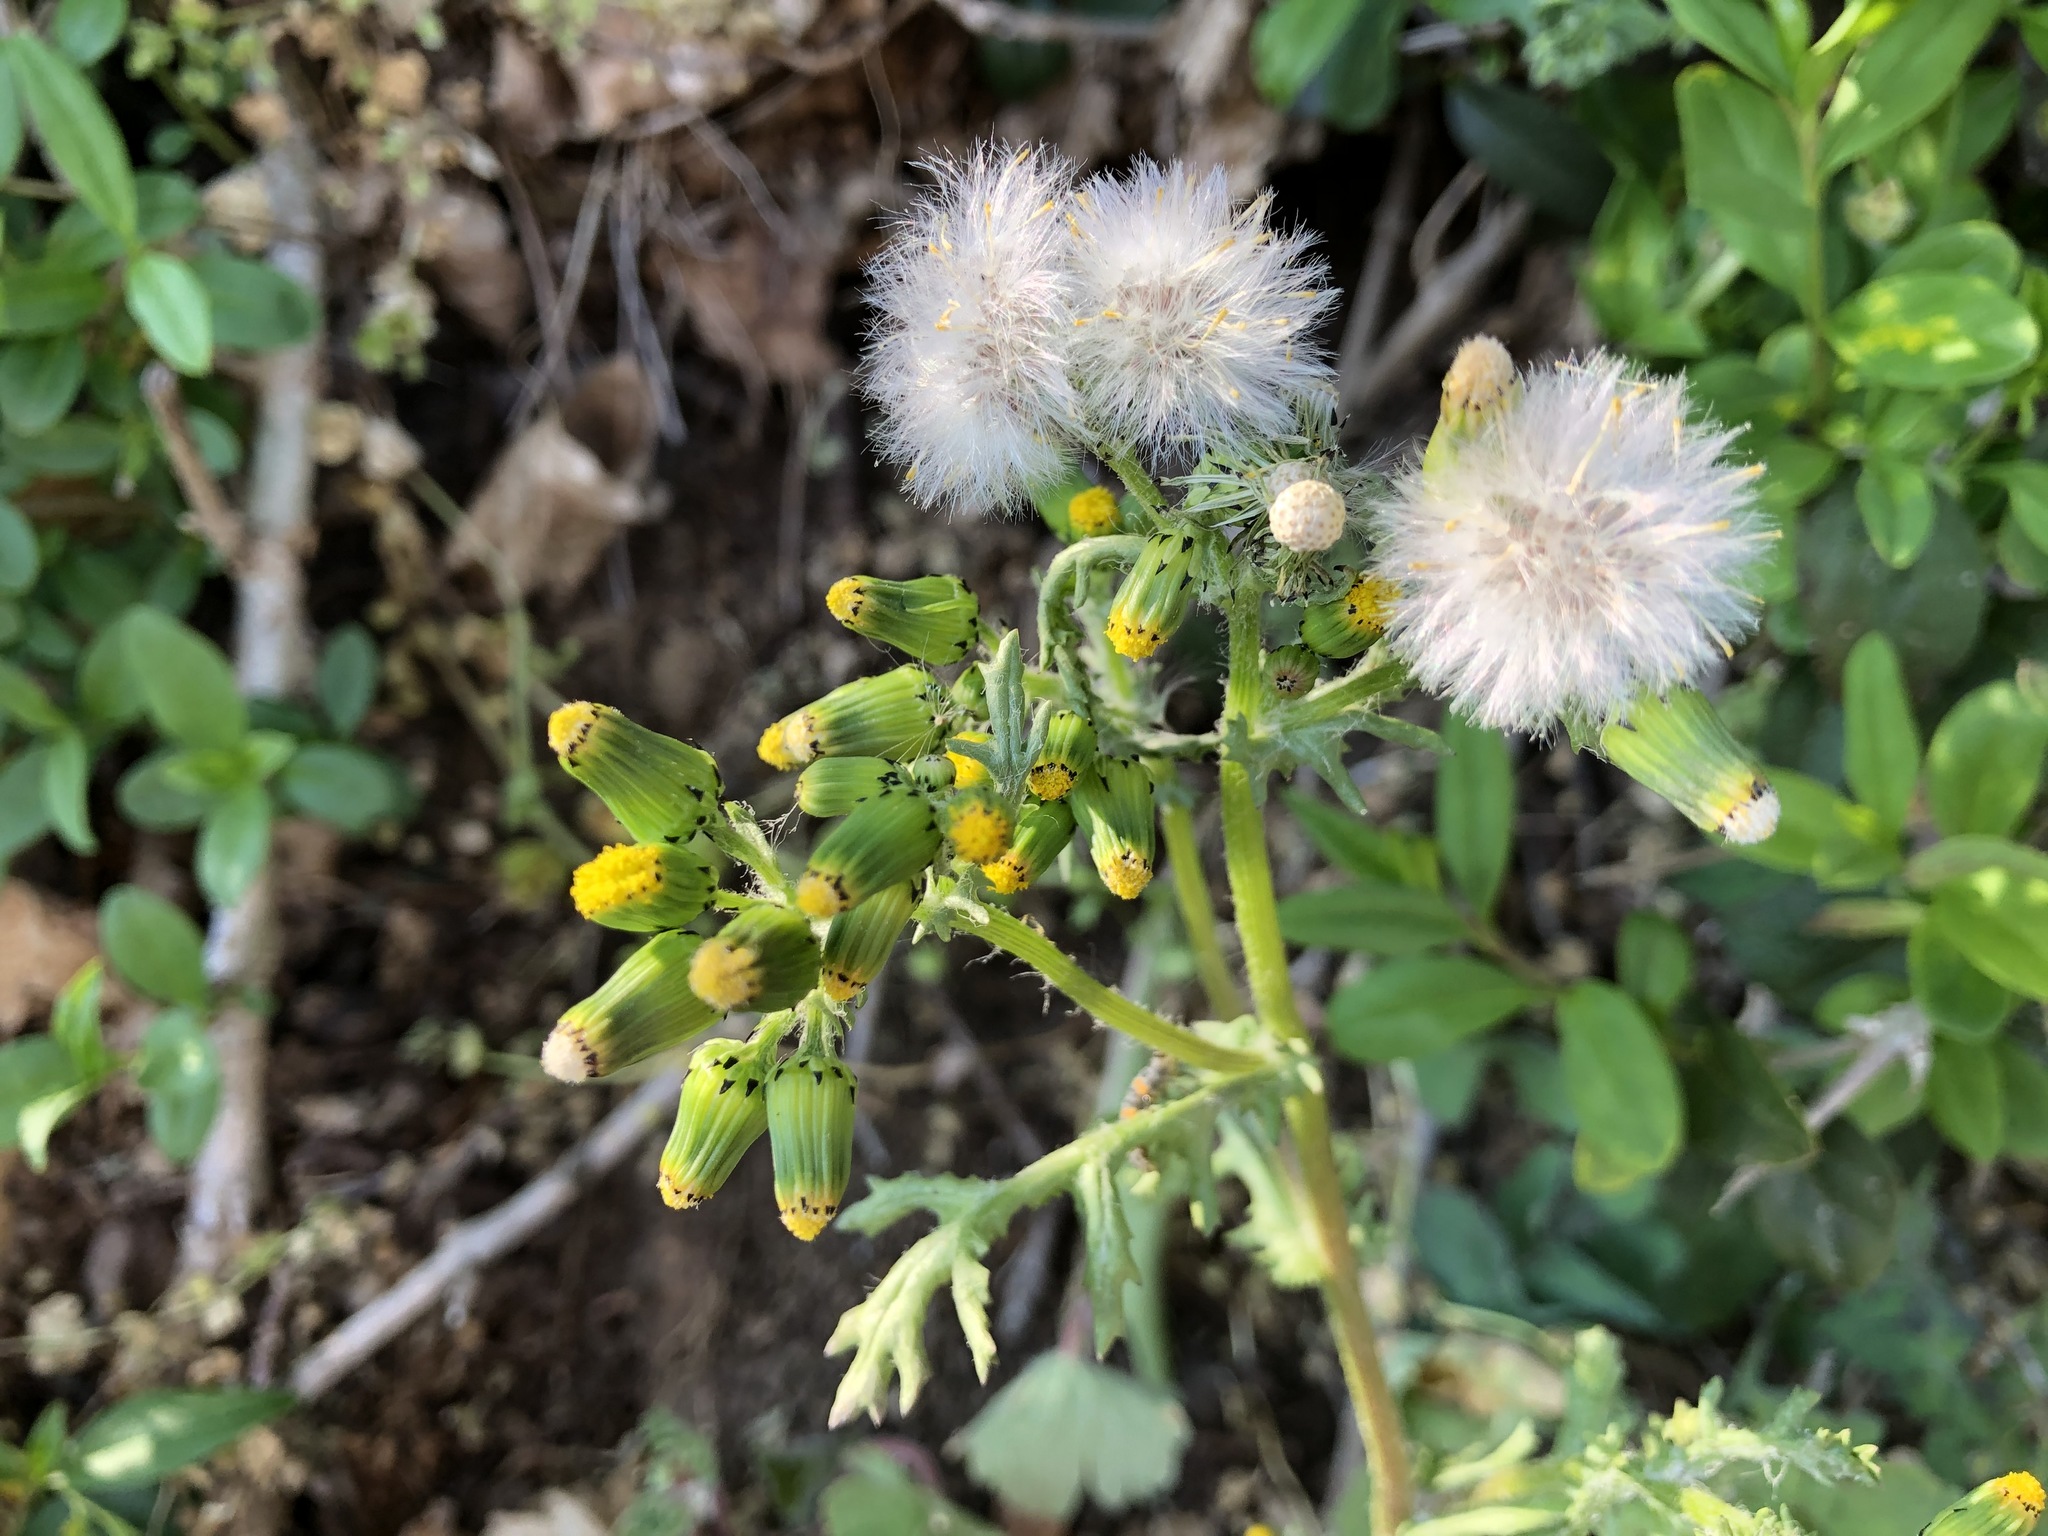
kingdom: Plantae
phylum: Tracheophyta
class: Magnoliopsida
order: Asterales
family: Asteraceae
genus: Senecio
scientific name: Senecio vulgaris
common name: Old-man-in-the-spring
